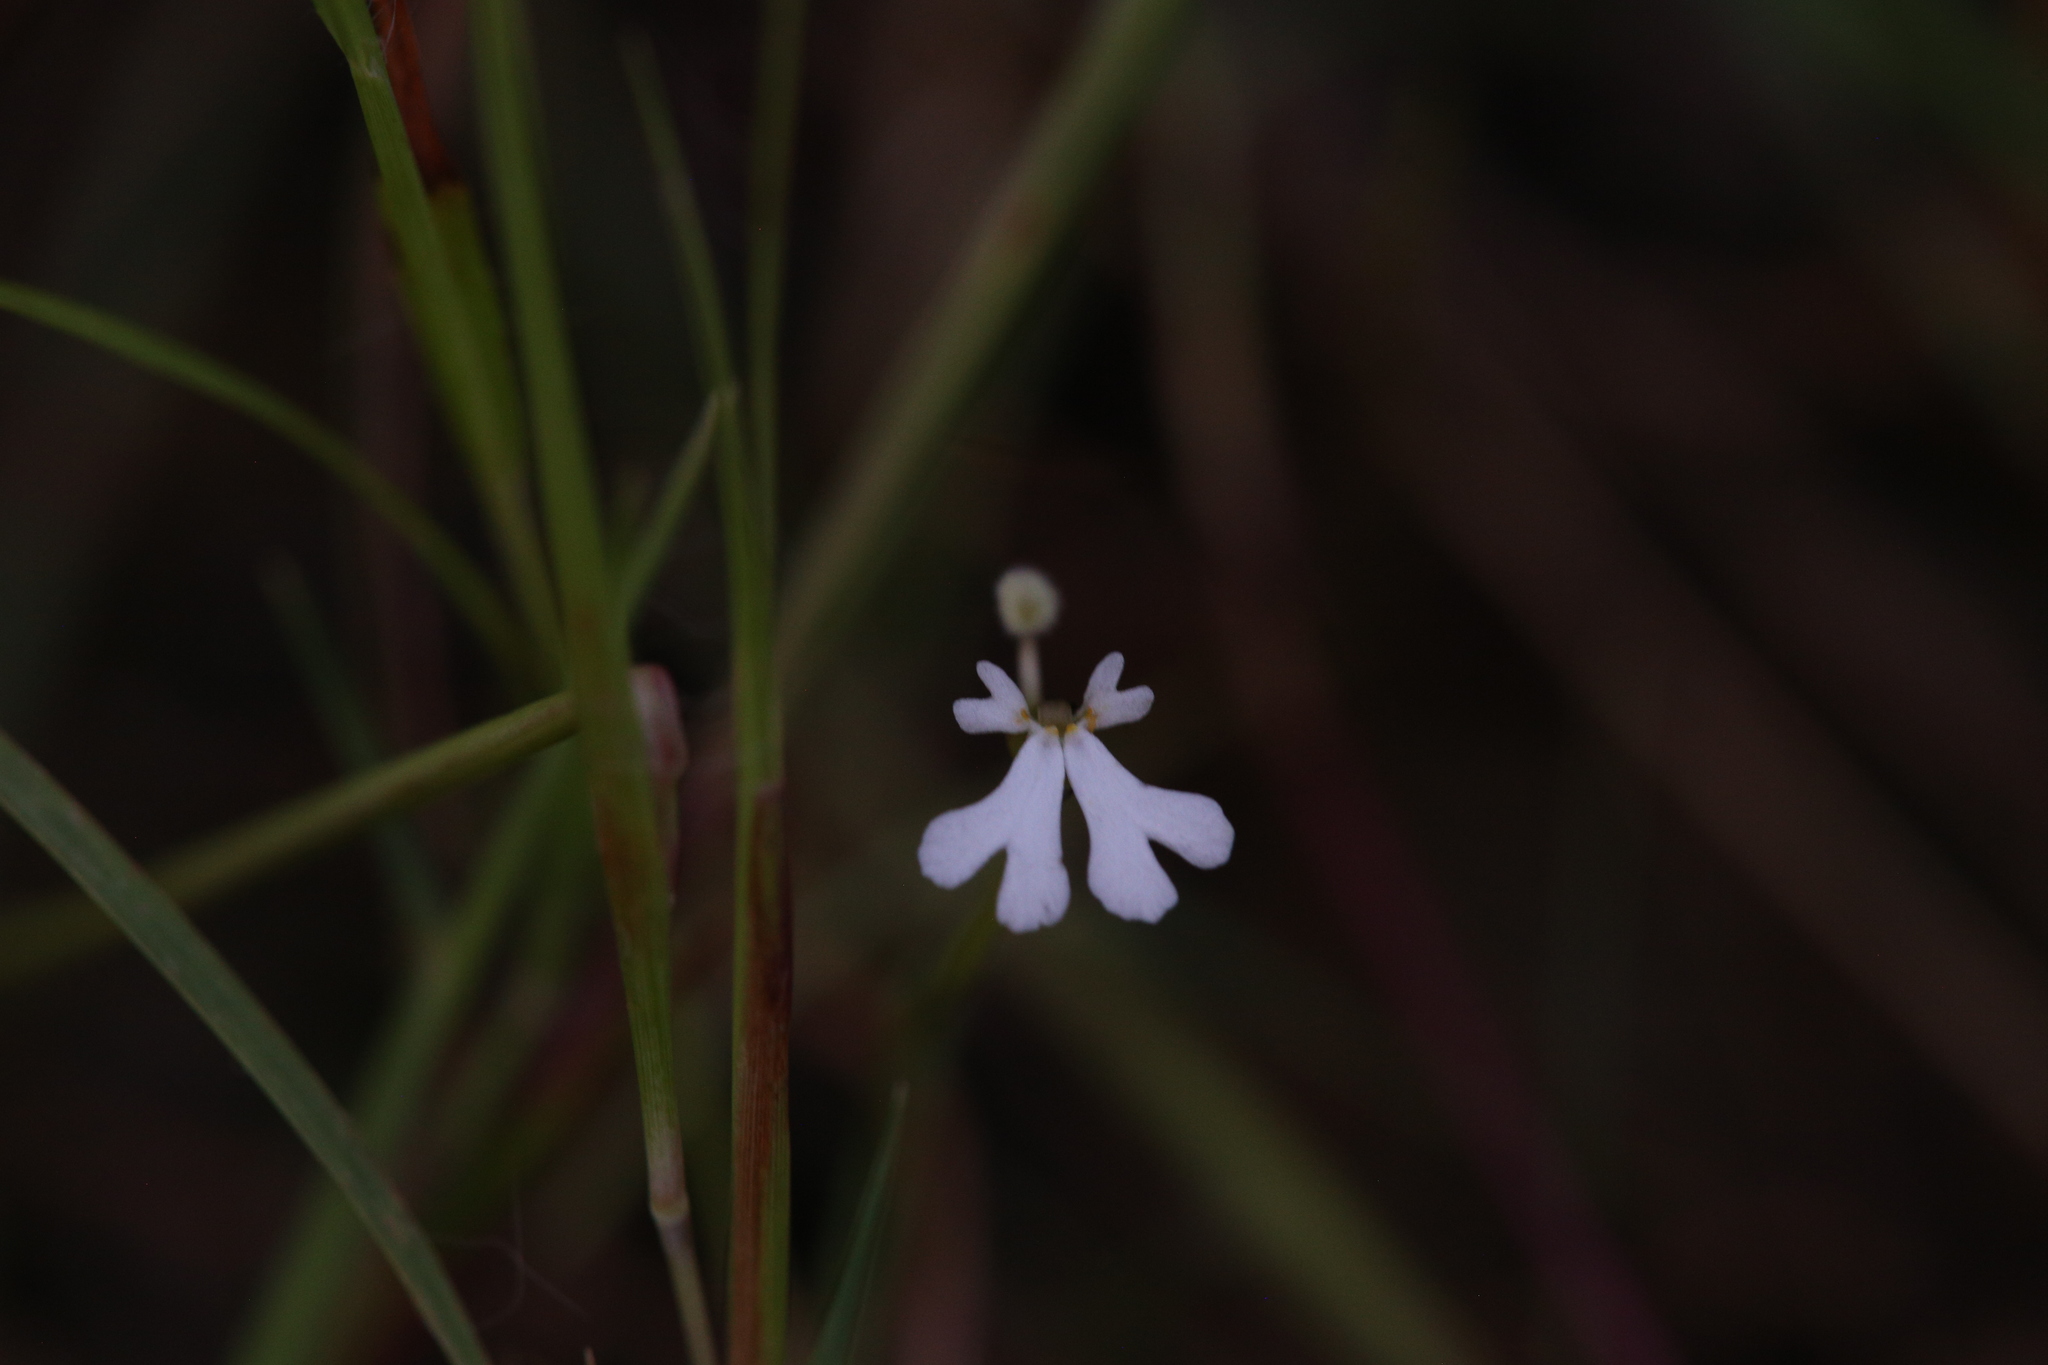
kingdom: Plantae
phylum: Tracheophyta
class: Magnoliopsida
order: Asterales
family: Stylidiaceae
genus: Stylidium
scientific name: Stylidium capillare
